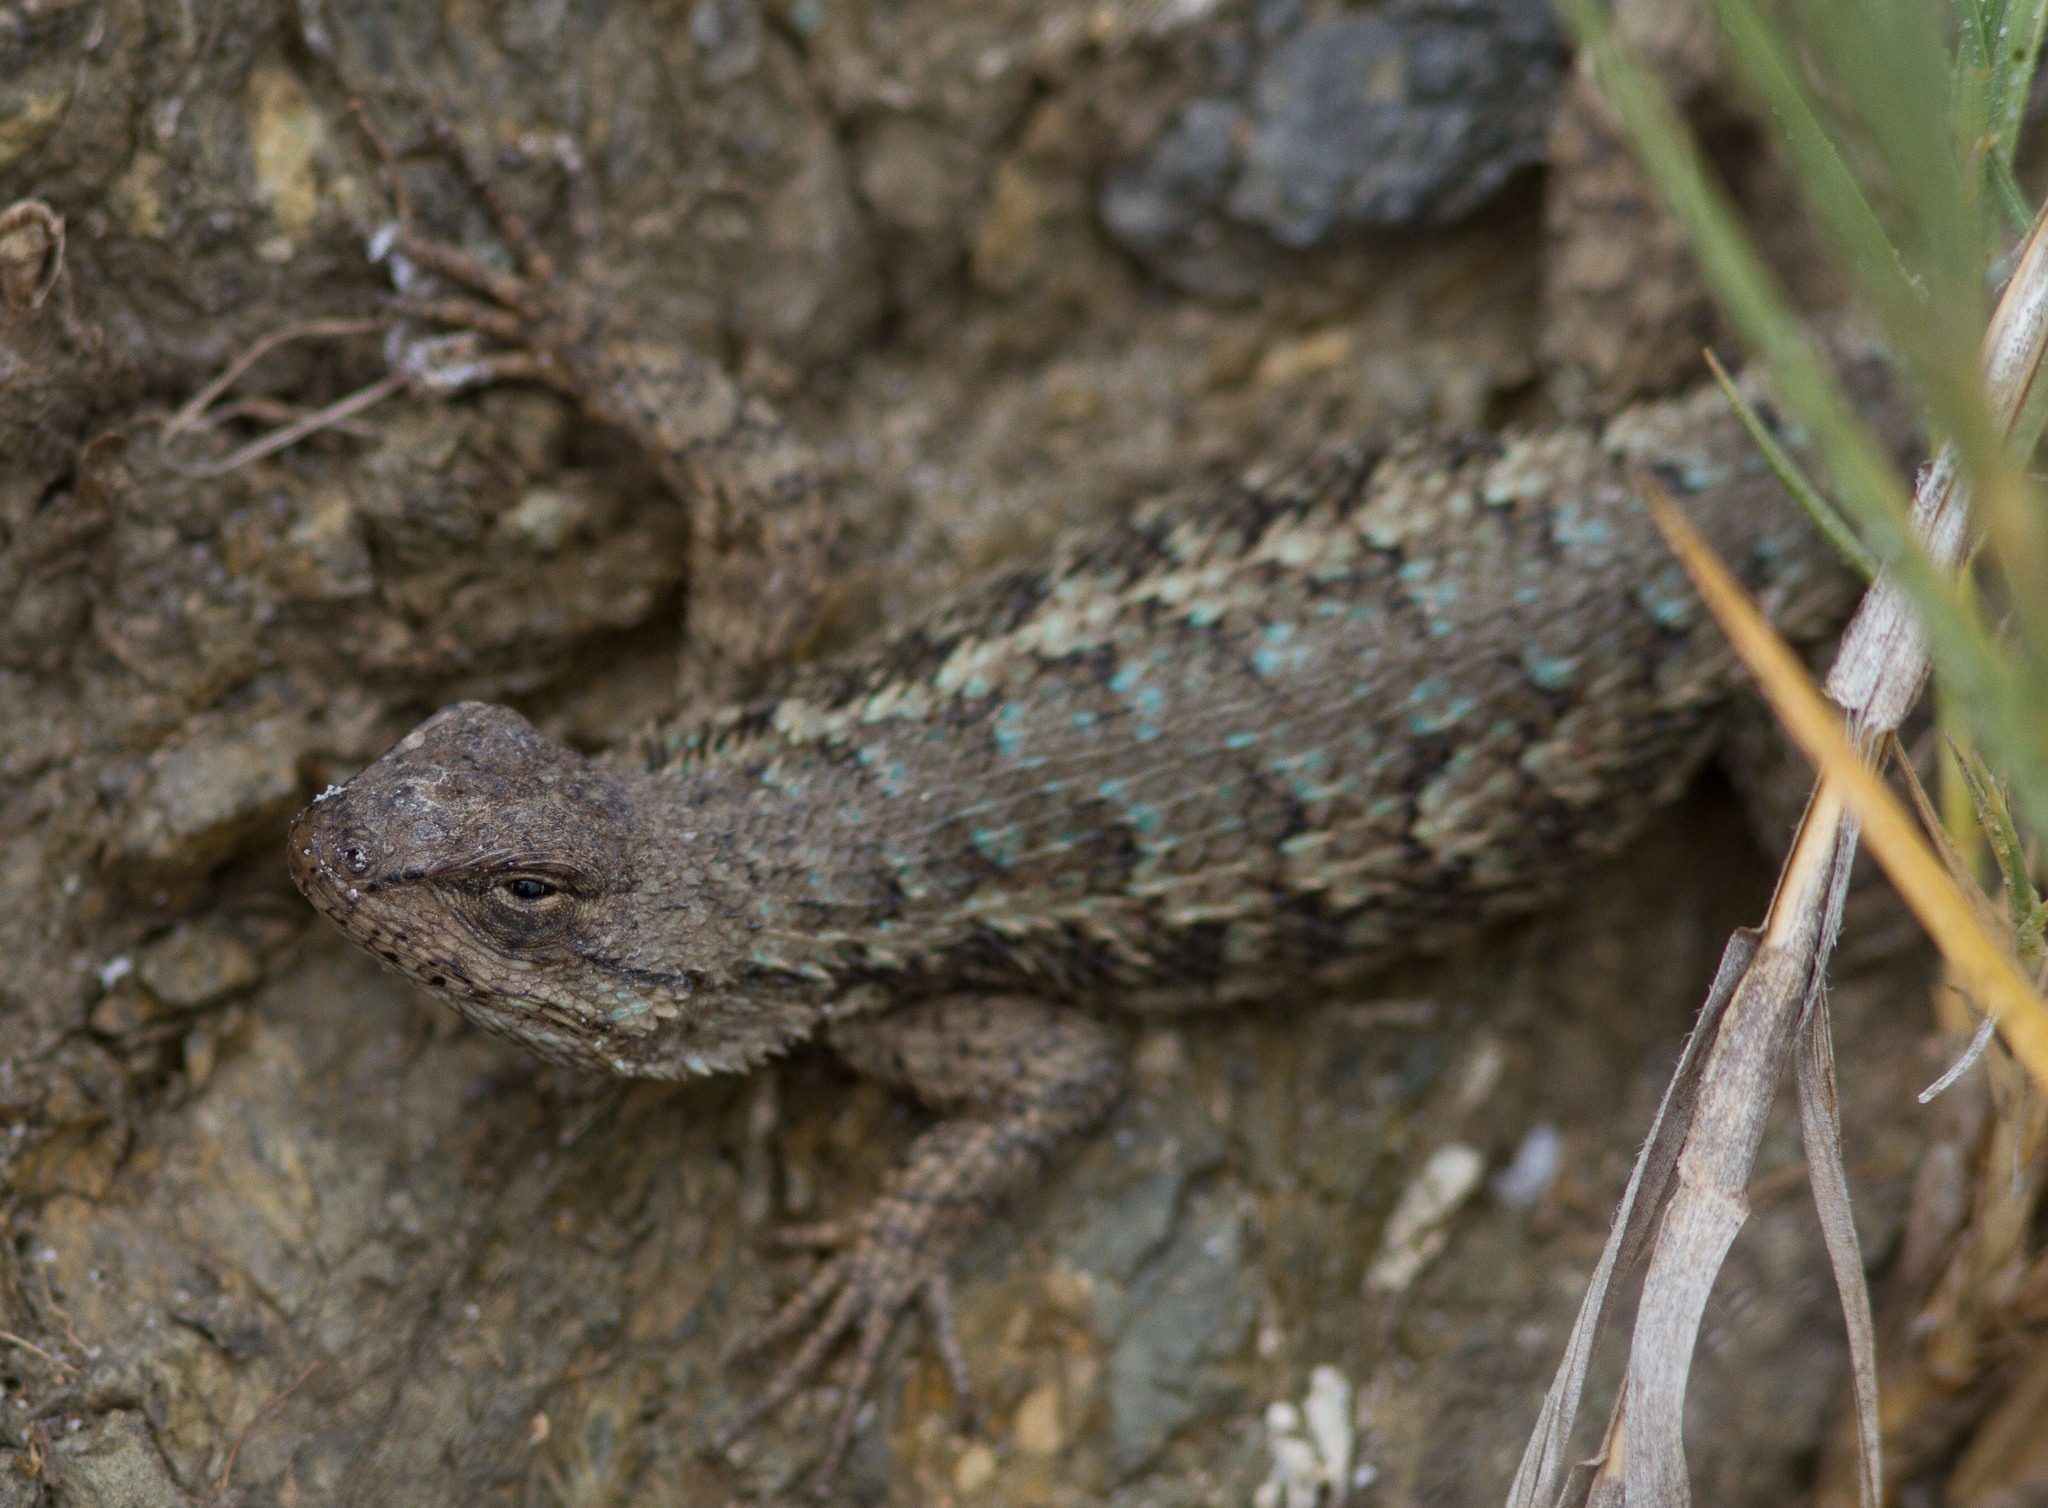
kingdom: Animalia
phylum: Chordata
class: Squamata
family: Phrynosomatidae
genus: Sceloporus
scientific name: Sceloporus occidentalis
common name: Western fence lizard
